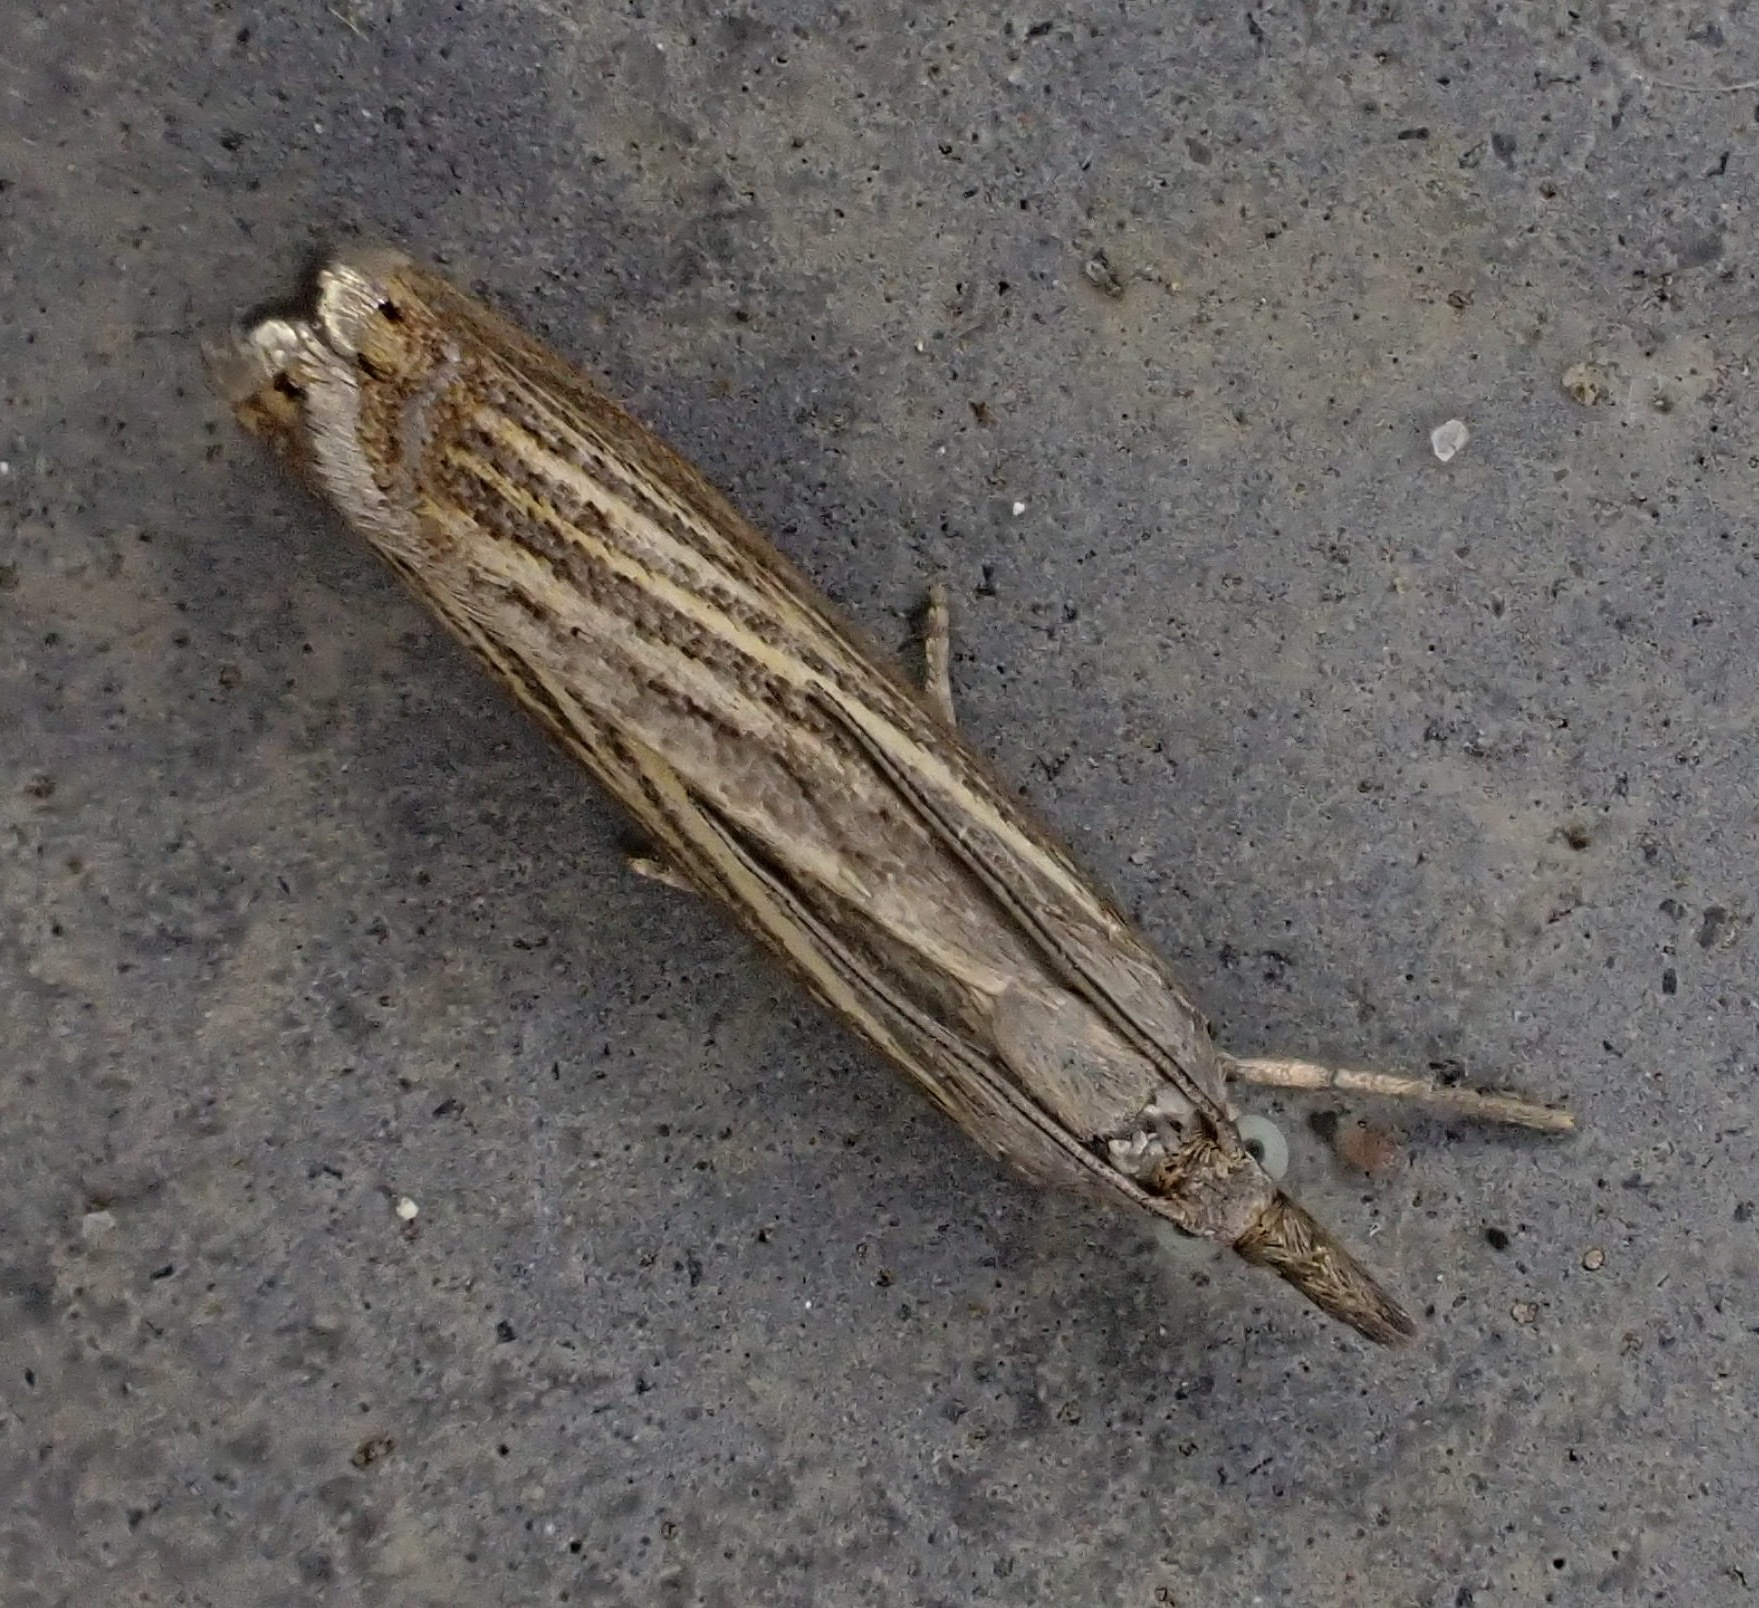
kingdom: Animalia
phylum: Arthropoda
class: Insecta
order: Lepidoptera
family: Crambidae
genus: Chrysoteuchia
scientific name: Chrysoteuchia culmella
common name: Garden grass-veneer
